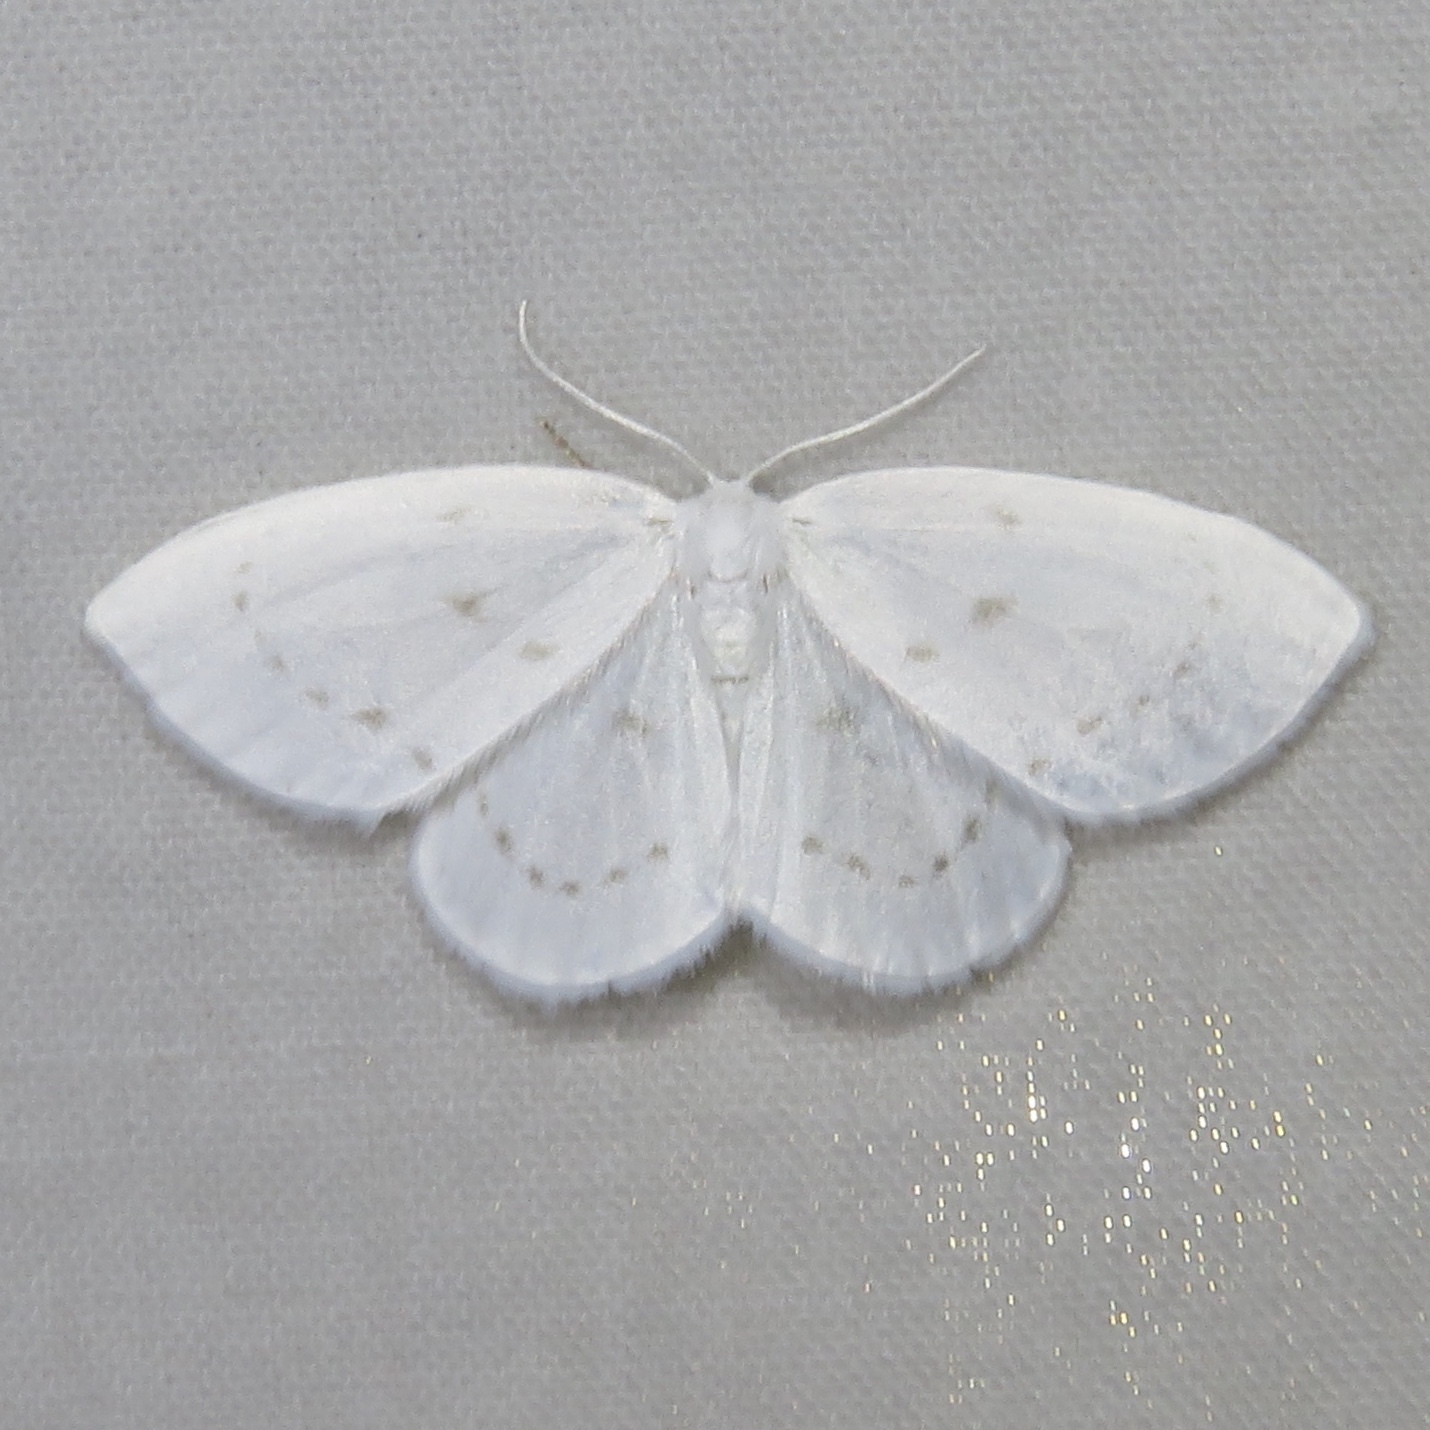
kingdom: Animalia
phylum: Arthropoda
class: Insecta
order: Lepidoptera
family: Drepanidae
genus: Eudeilinia
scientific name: Eudeilinia herminiata
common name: Northern eudeilinea moth
